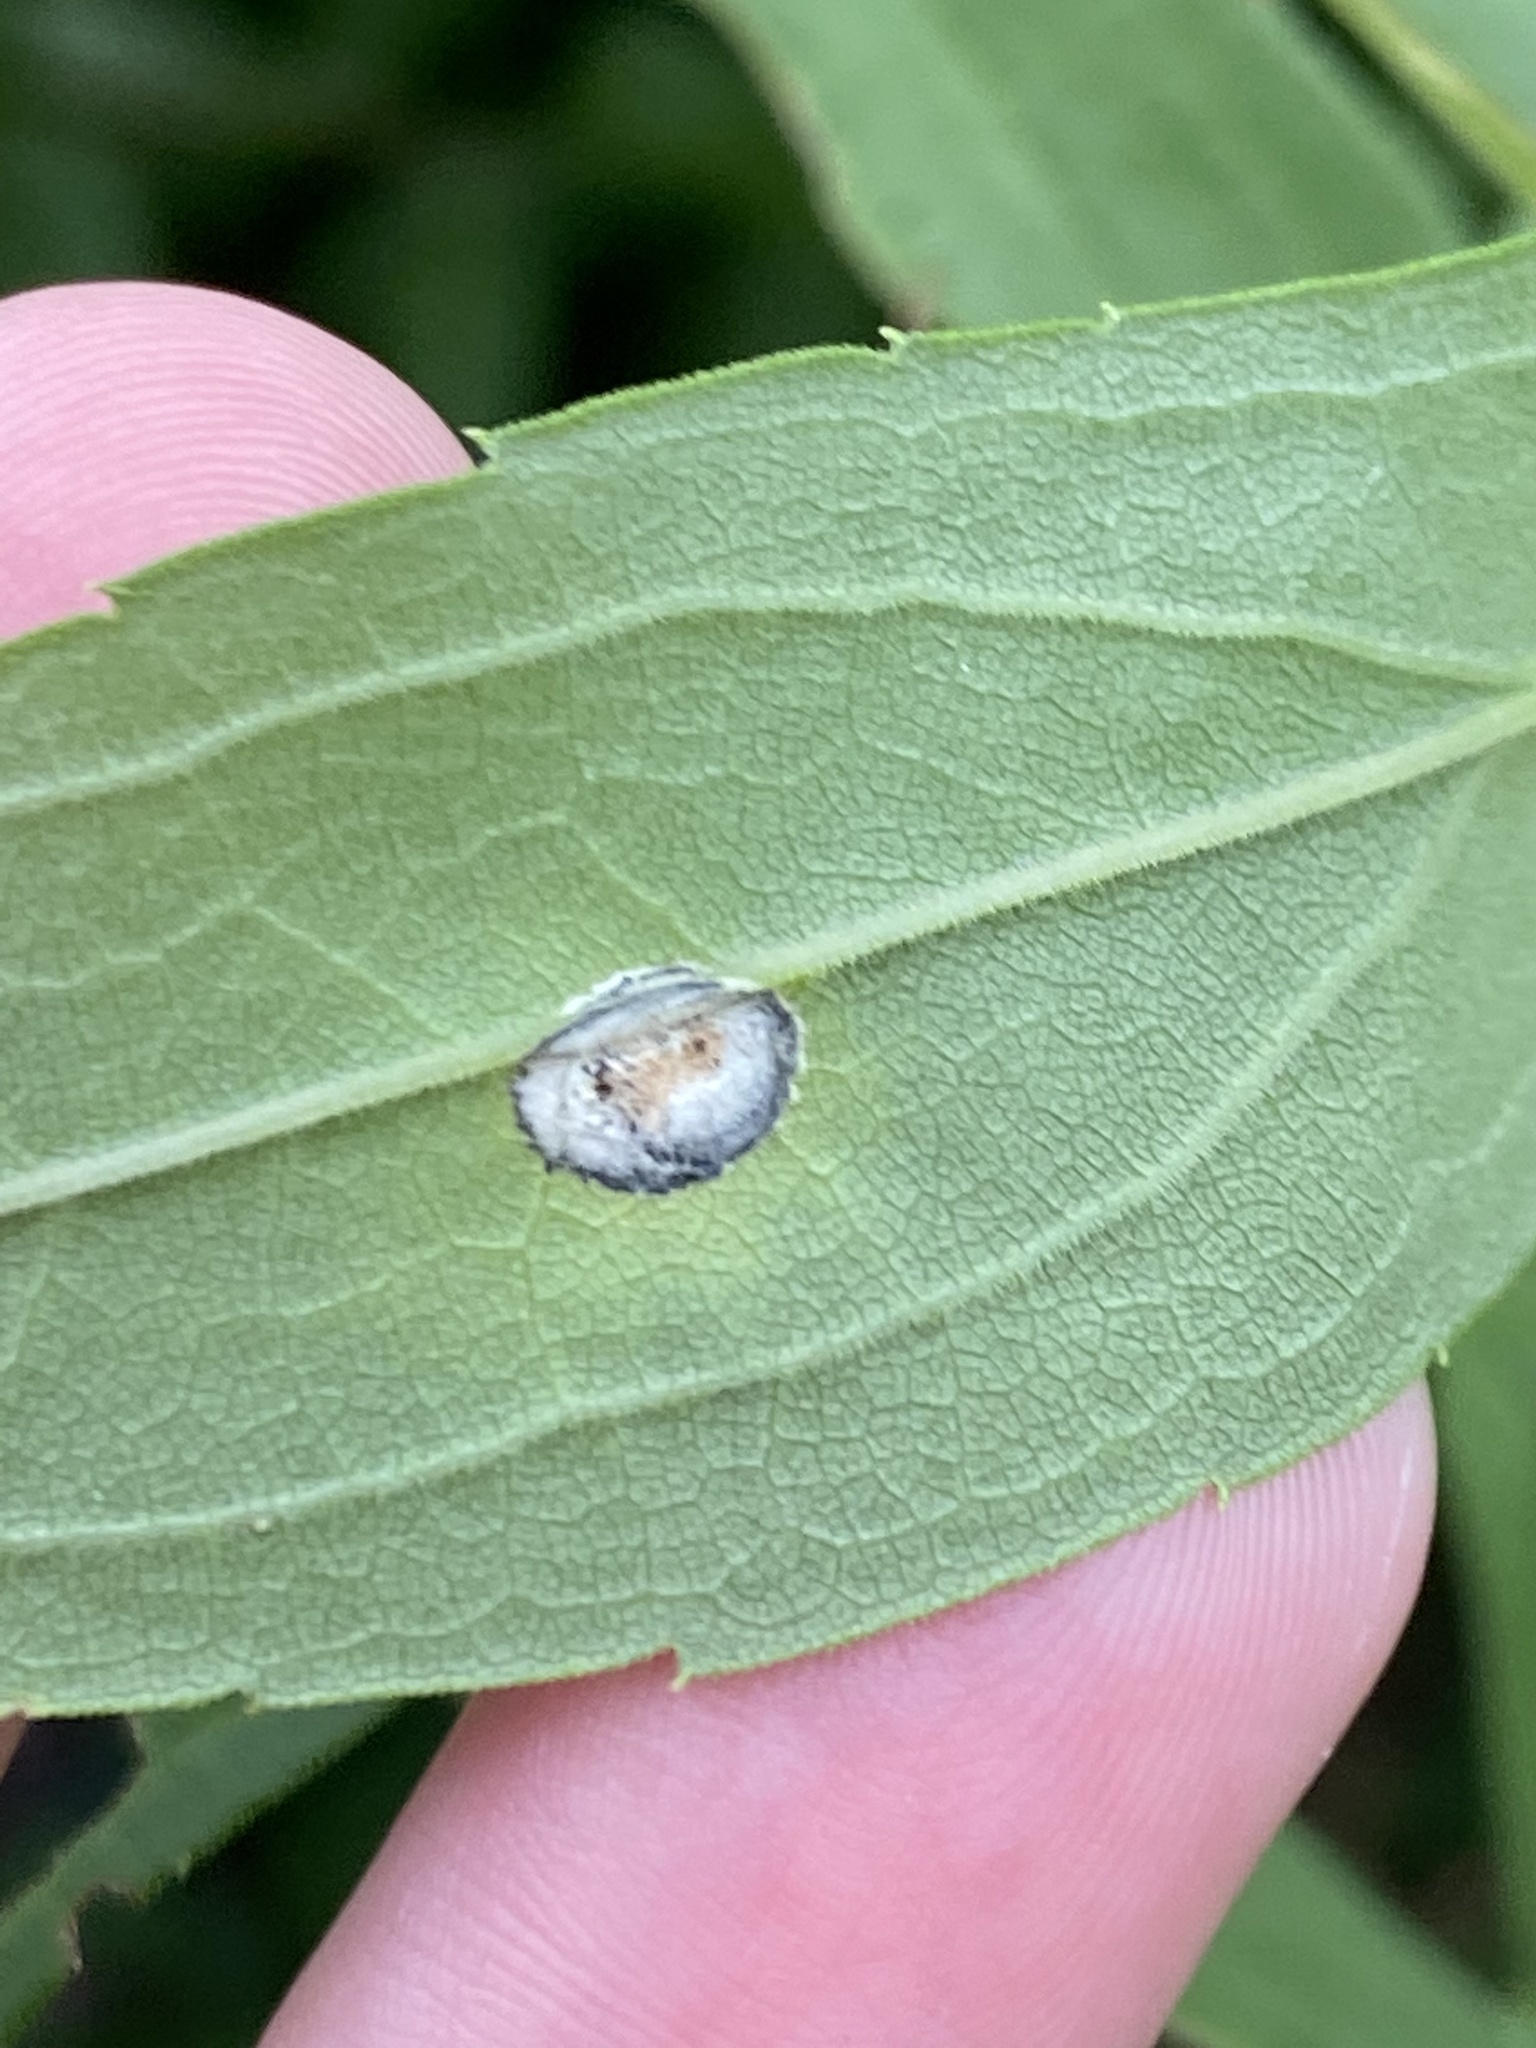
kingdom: Fungi
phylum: Ascomycota
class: Dothideomycetes
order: Botryosphaeriales
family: Botryosphaeriaceae
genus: Botryosphaeria
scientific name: Botryosphaeria dothidea
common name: Asteromyia gall midge fungus
